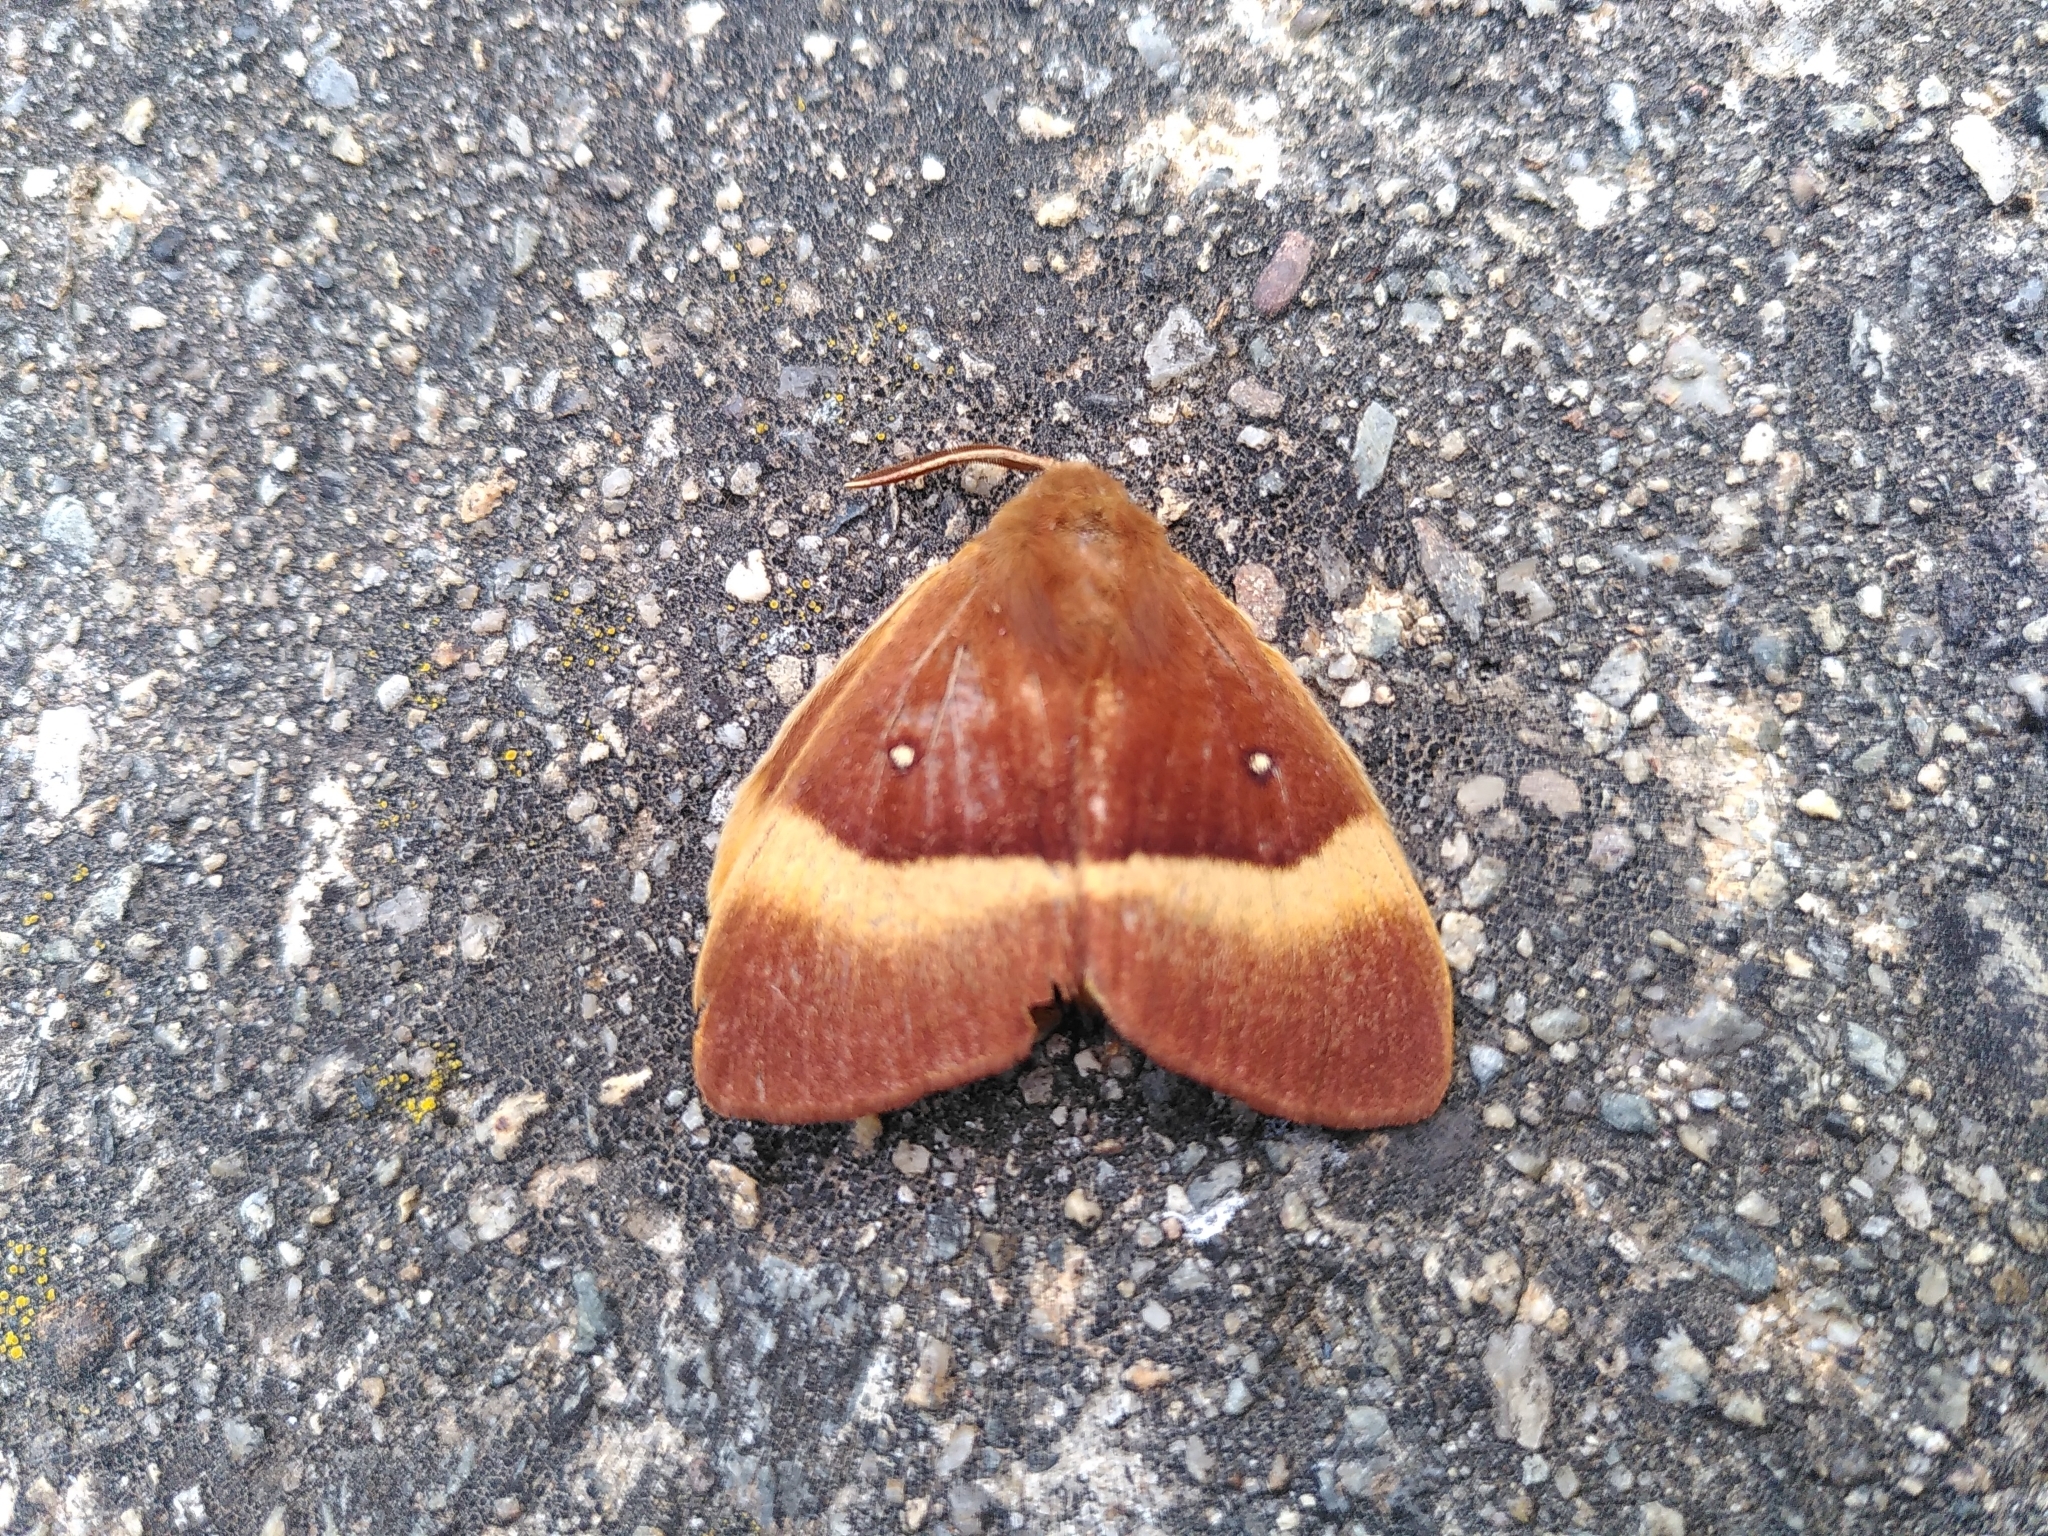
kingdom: Animalia
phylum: Arthropoda
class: Insecta
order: Lepidoptera
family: Lasiocampidae
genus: Lasiocampa
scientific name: Lasiocampa quercus
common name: Oak eggar
